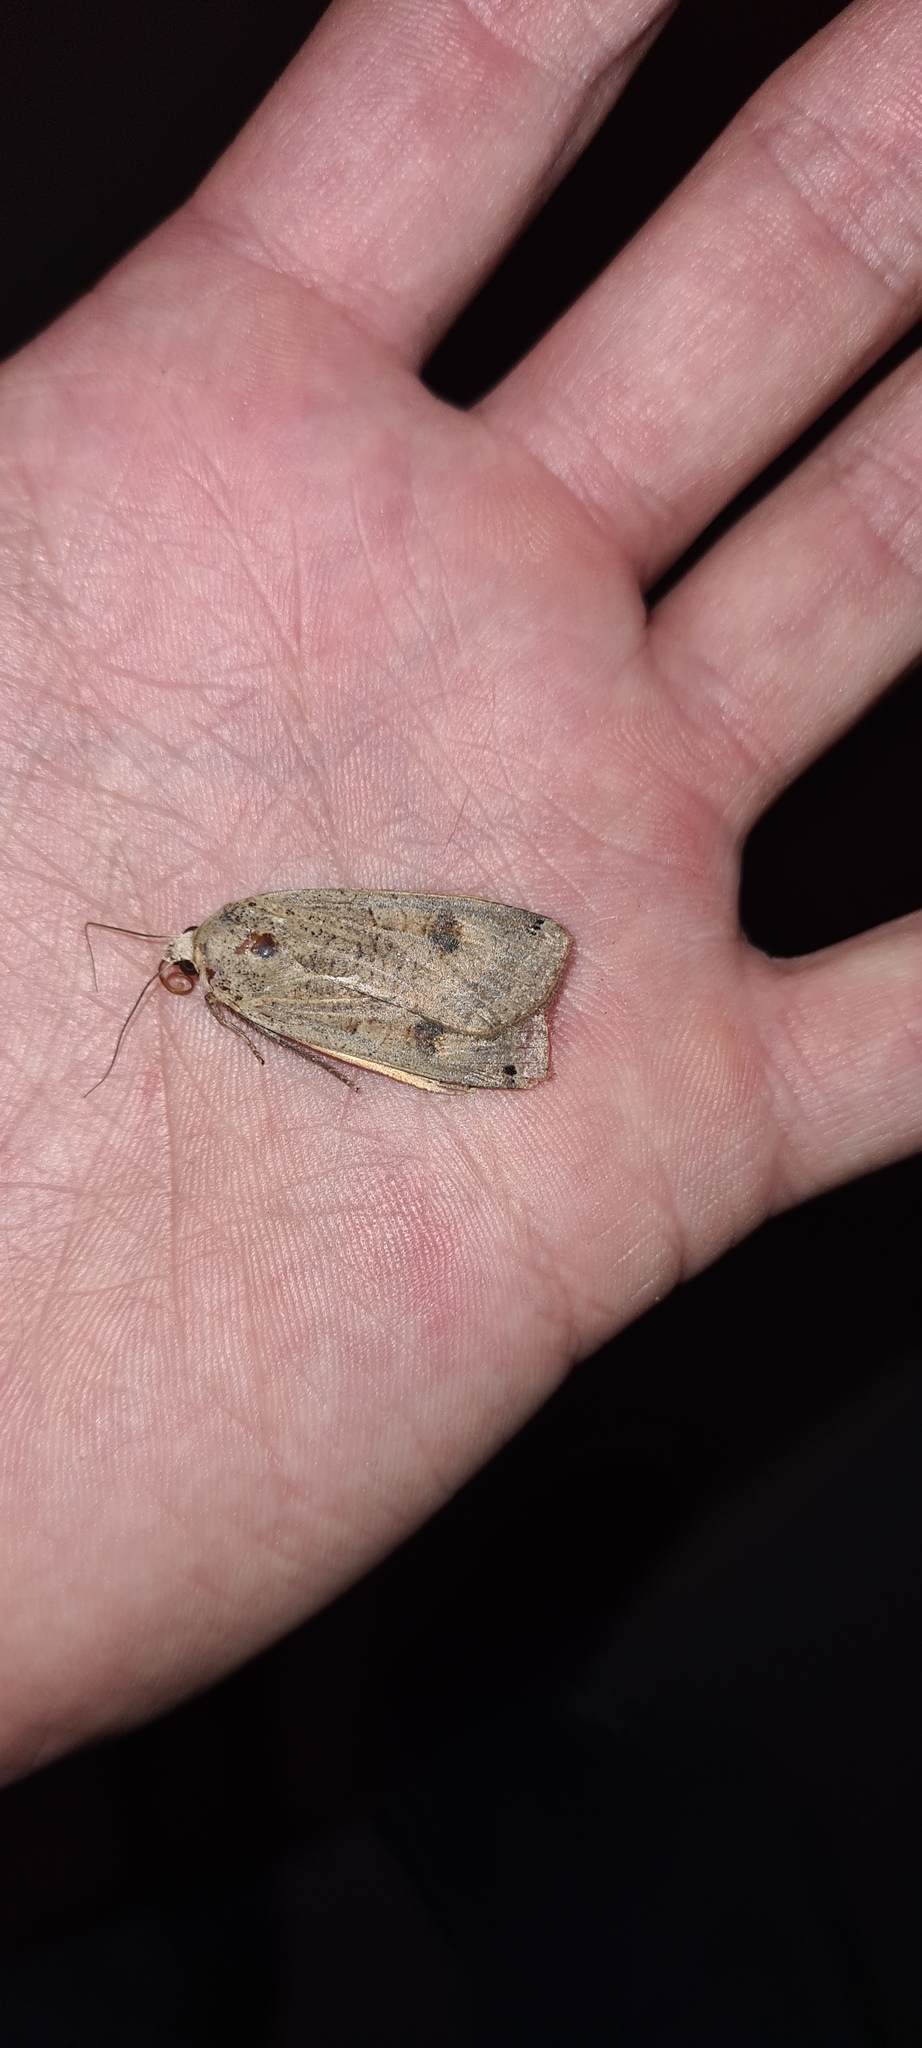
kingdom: Animalia
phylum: Arthropoda
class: Insecta
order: Lepidoptera
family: Noctuidae
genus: Noctua
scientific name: Noctua pronuba
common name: Large yellow underwing
